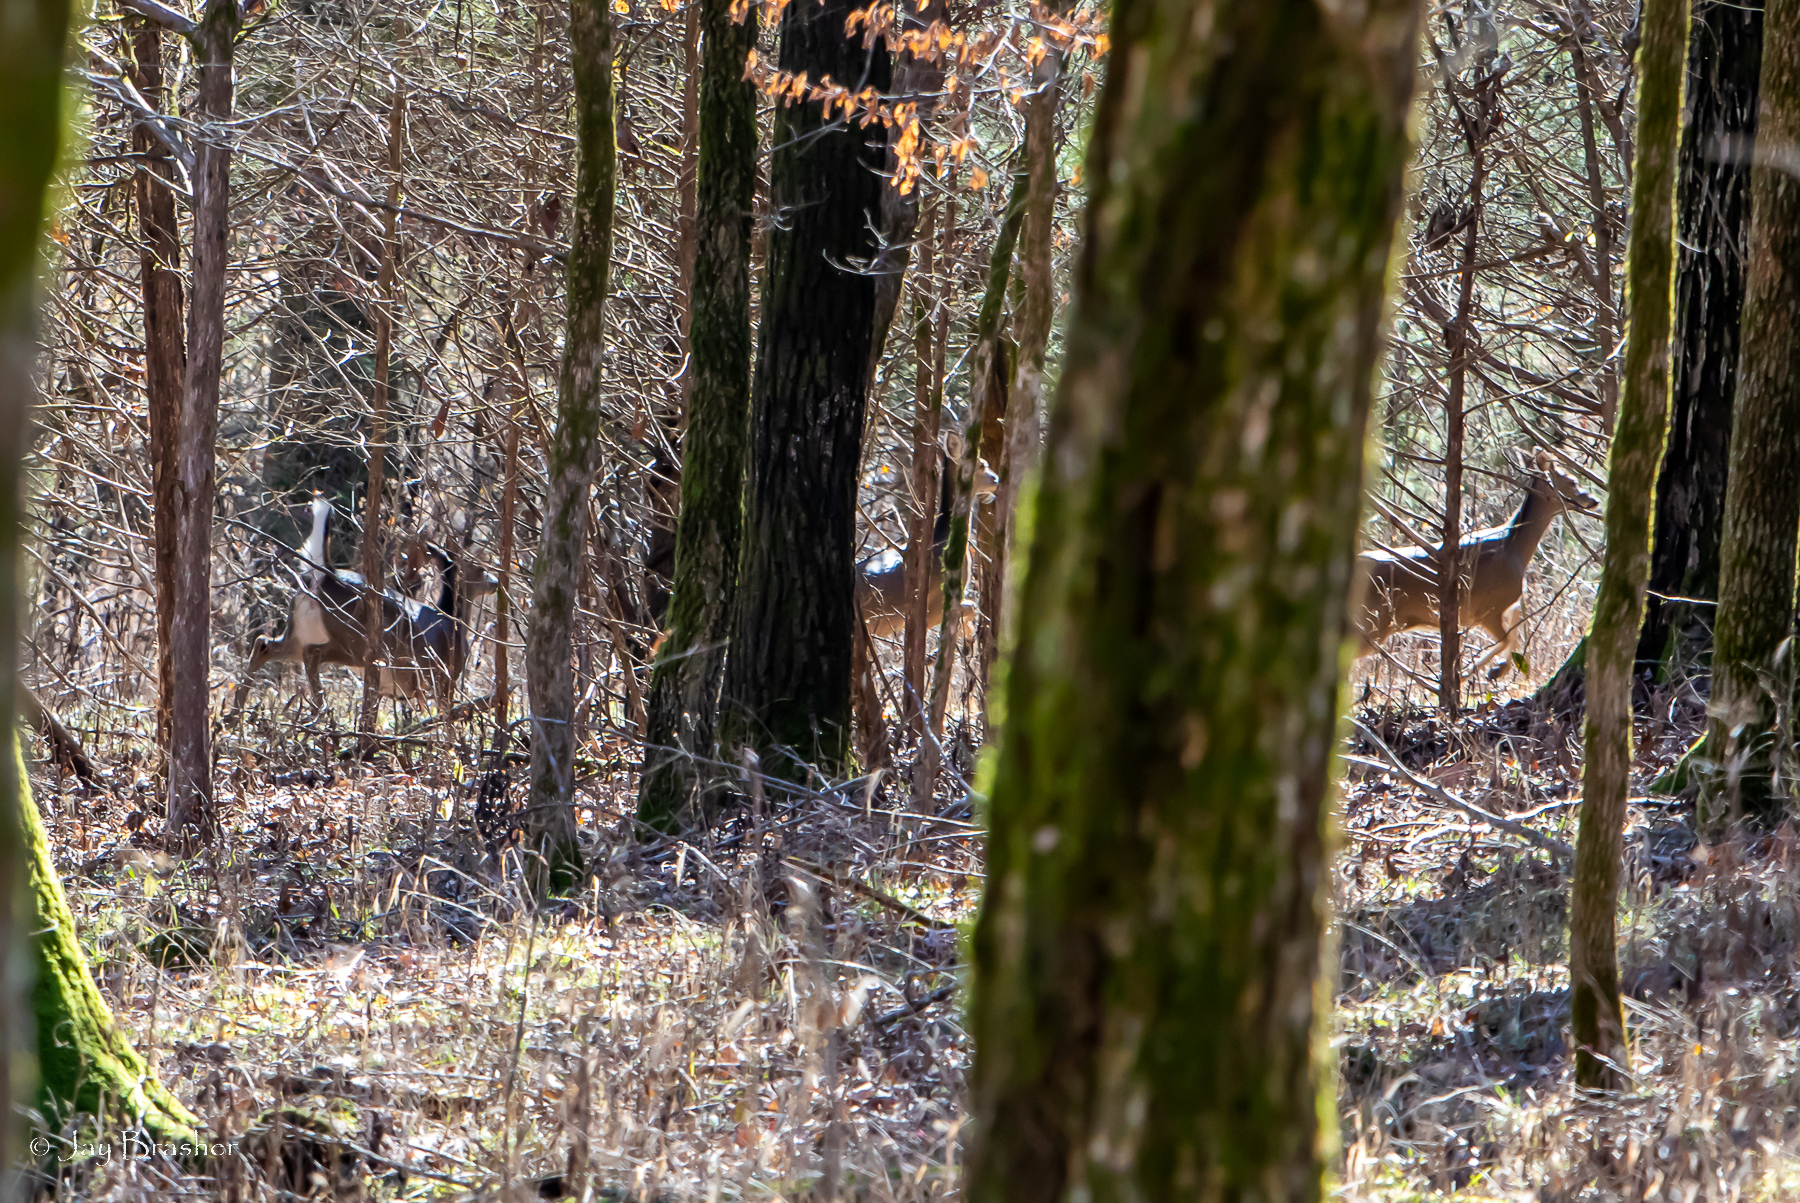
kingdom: Animalia
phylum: Chordata
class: Mammalia
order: Artiodactyla
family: Cervidae
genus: Odocoileus
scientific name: Odocoileus virginianus
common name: White-tailed deer
